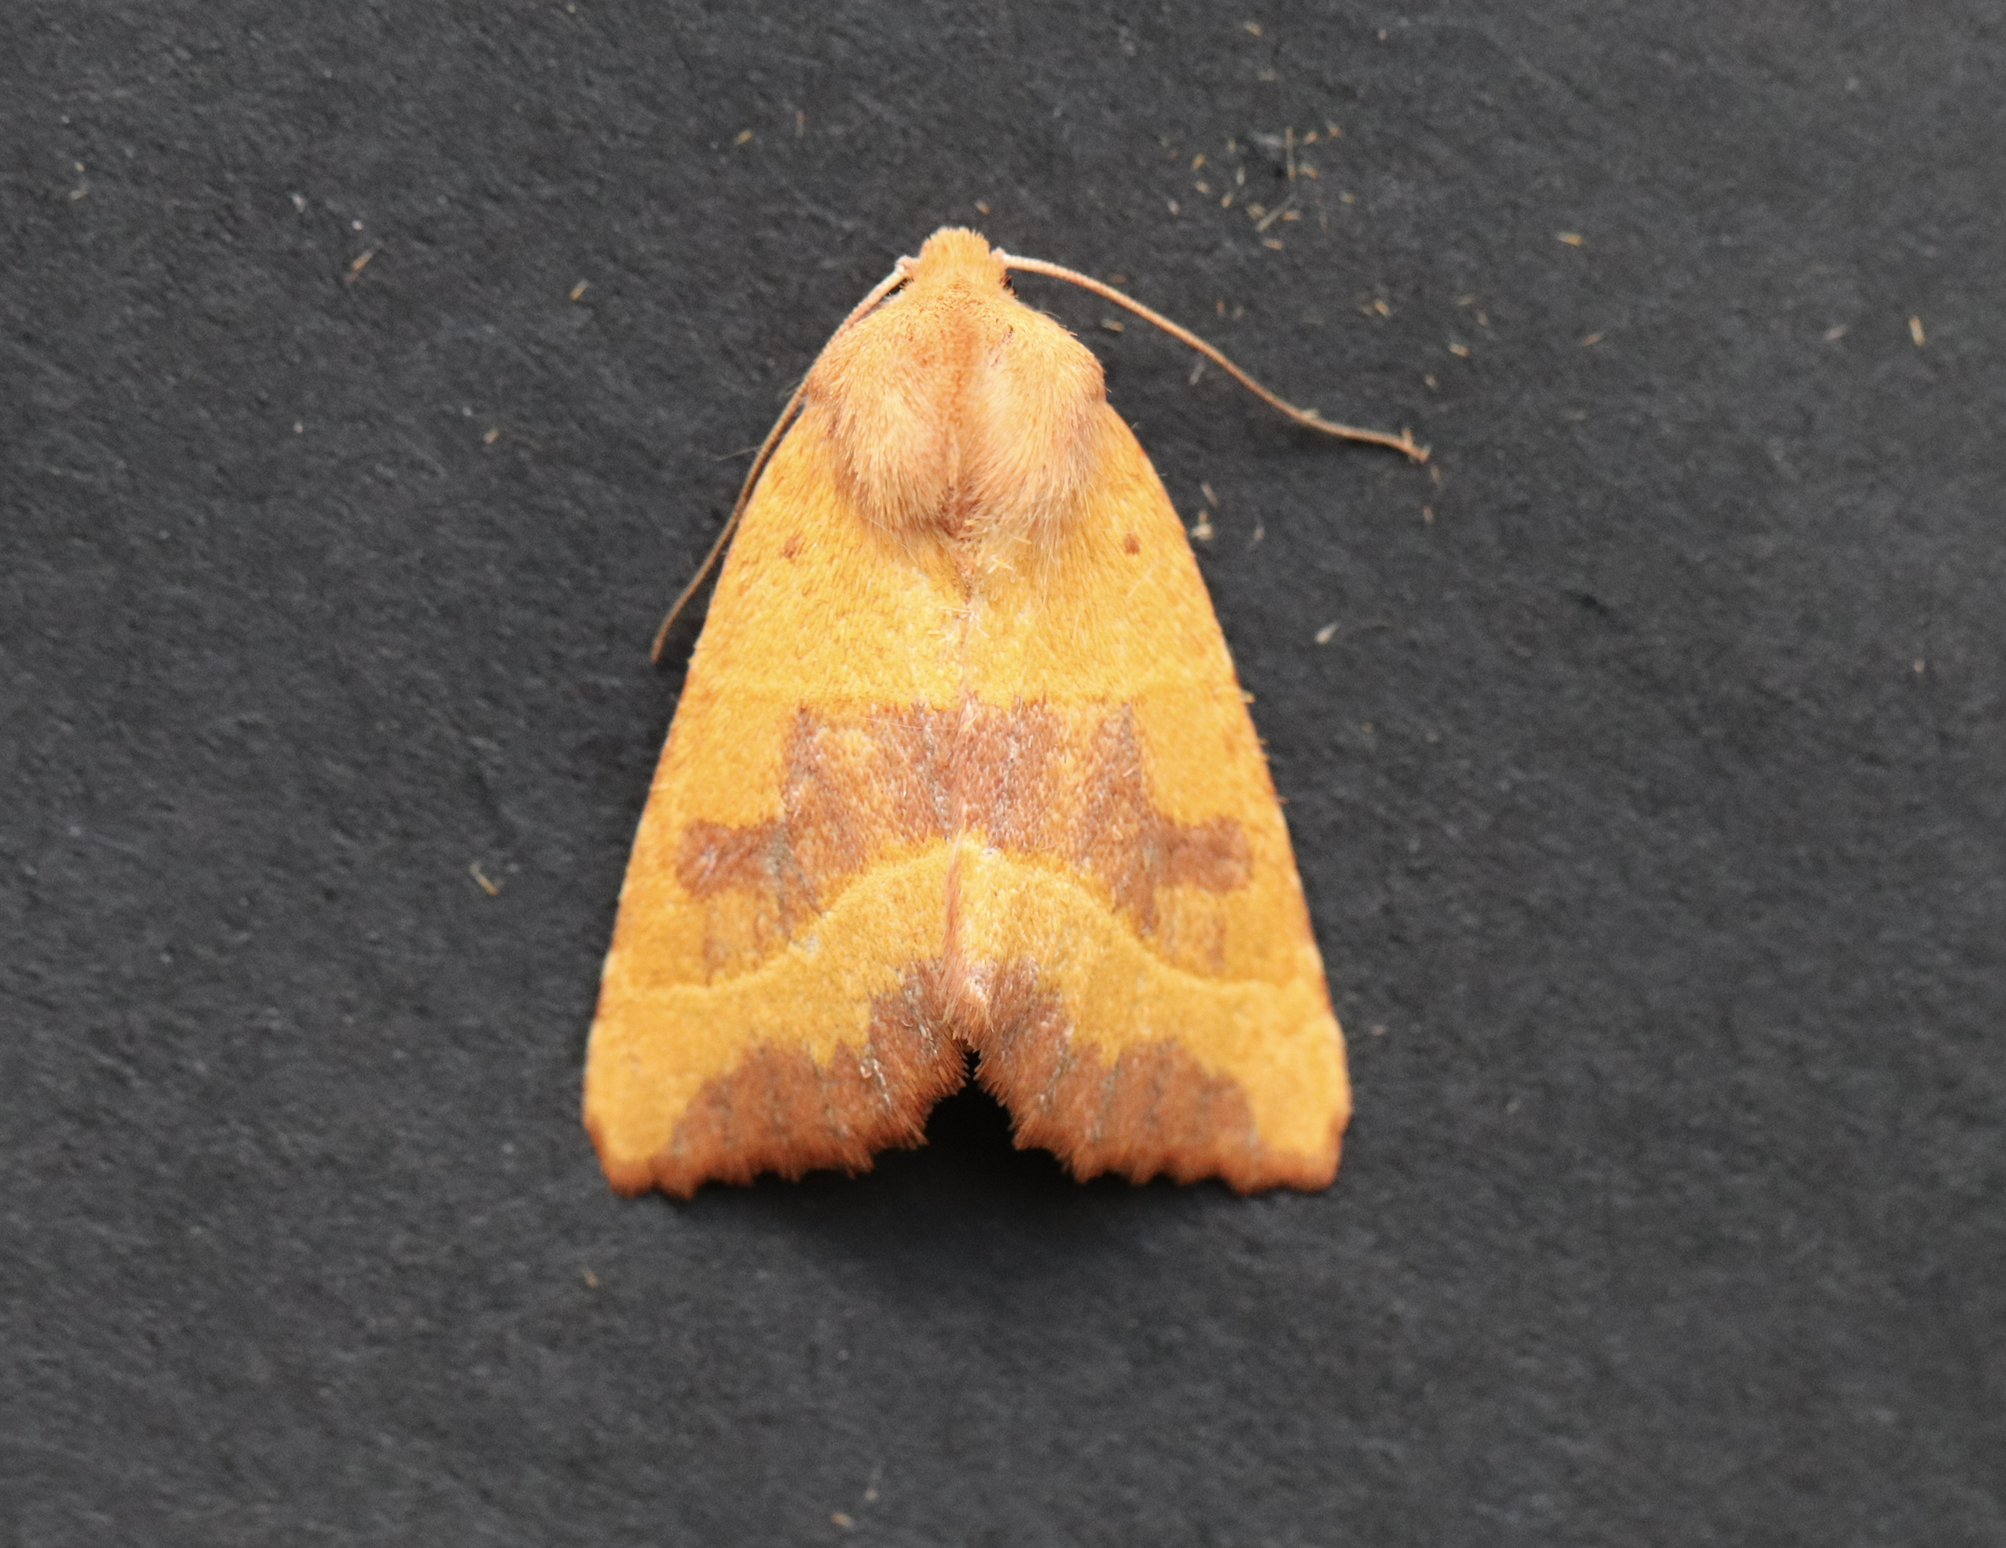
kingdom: Animalia
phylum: Arthropoda
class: Insecta
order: Lepidoptera
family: Noctuidae
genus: Atethmia
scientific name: Atethmia centrago
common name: Centre-barred sallow
